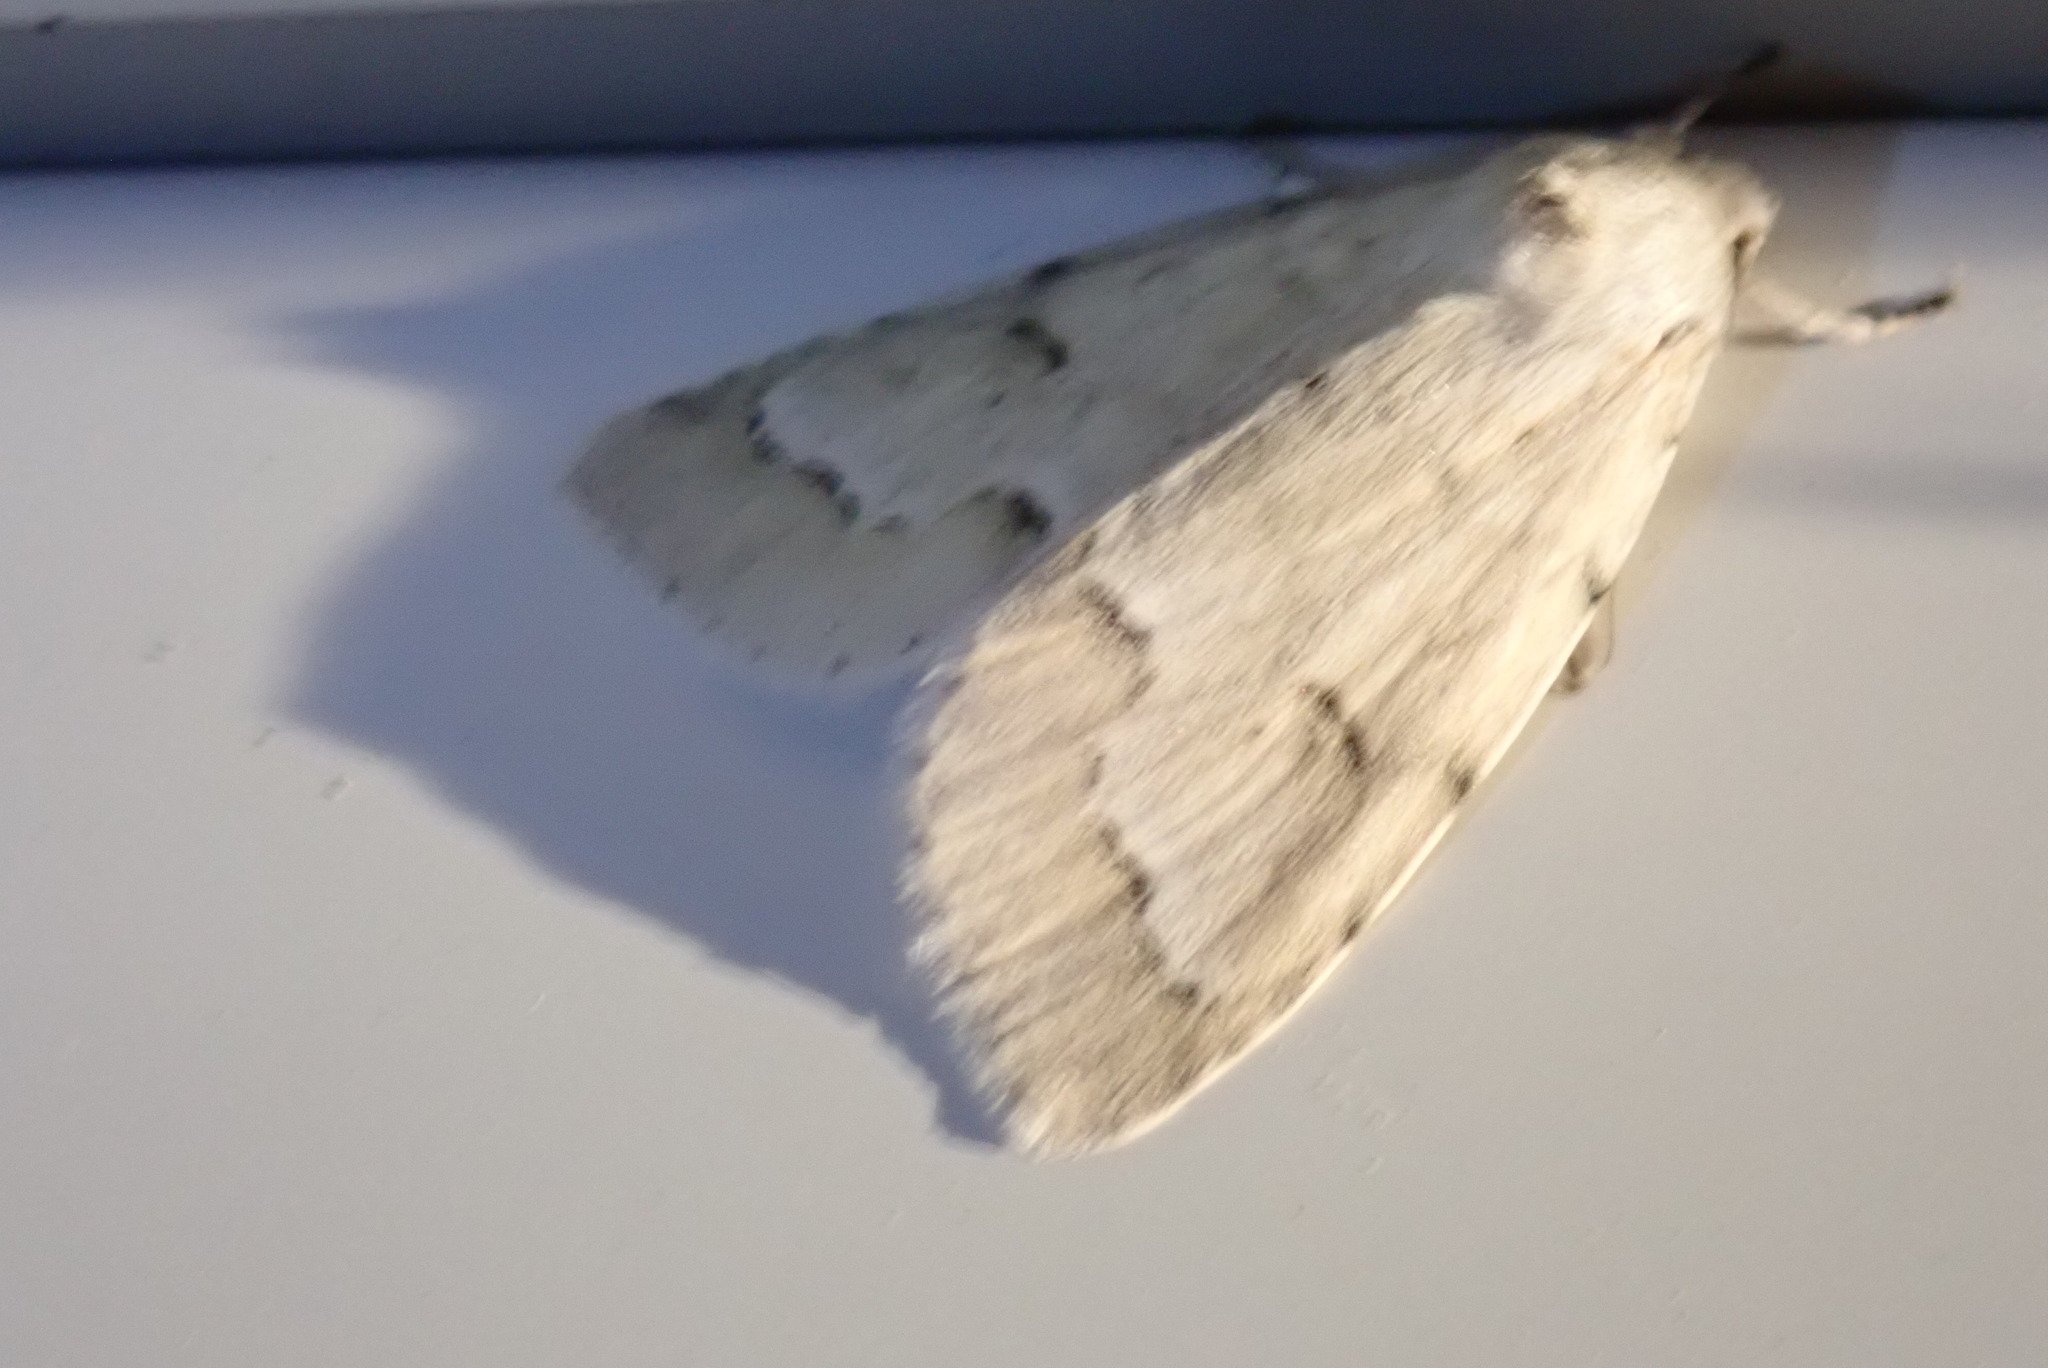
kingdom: Animalia
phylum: Arthropoda
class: Insecta
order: Lepidoptera
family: Noctuidae
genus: Acronicta
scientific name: Acronicta innotata
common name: Unmarked dagger
